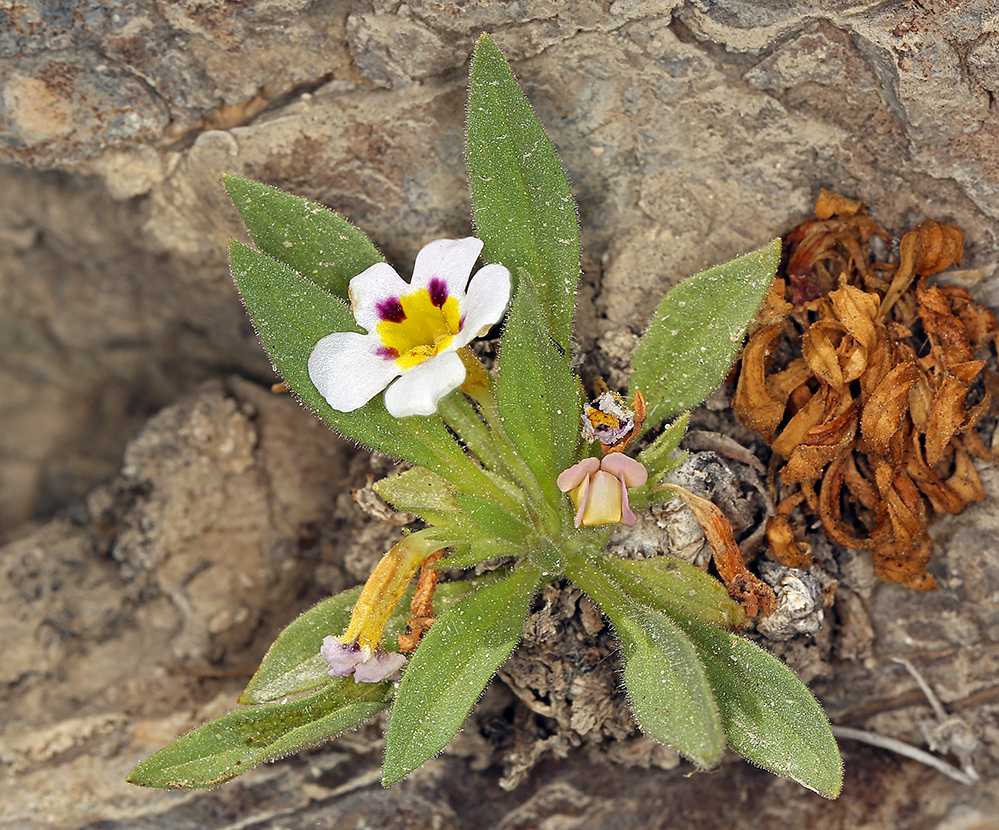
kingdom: Plantae
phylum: Tracheophyta
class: Magnoliopsida
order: Lamiales
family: Phrymaceae
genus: Diplacus
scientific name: Diplacus rupicola
